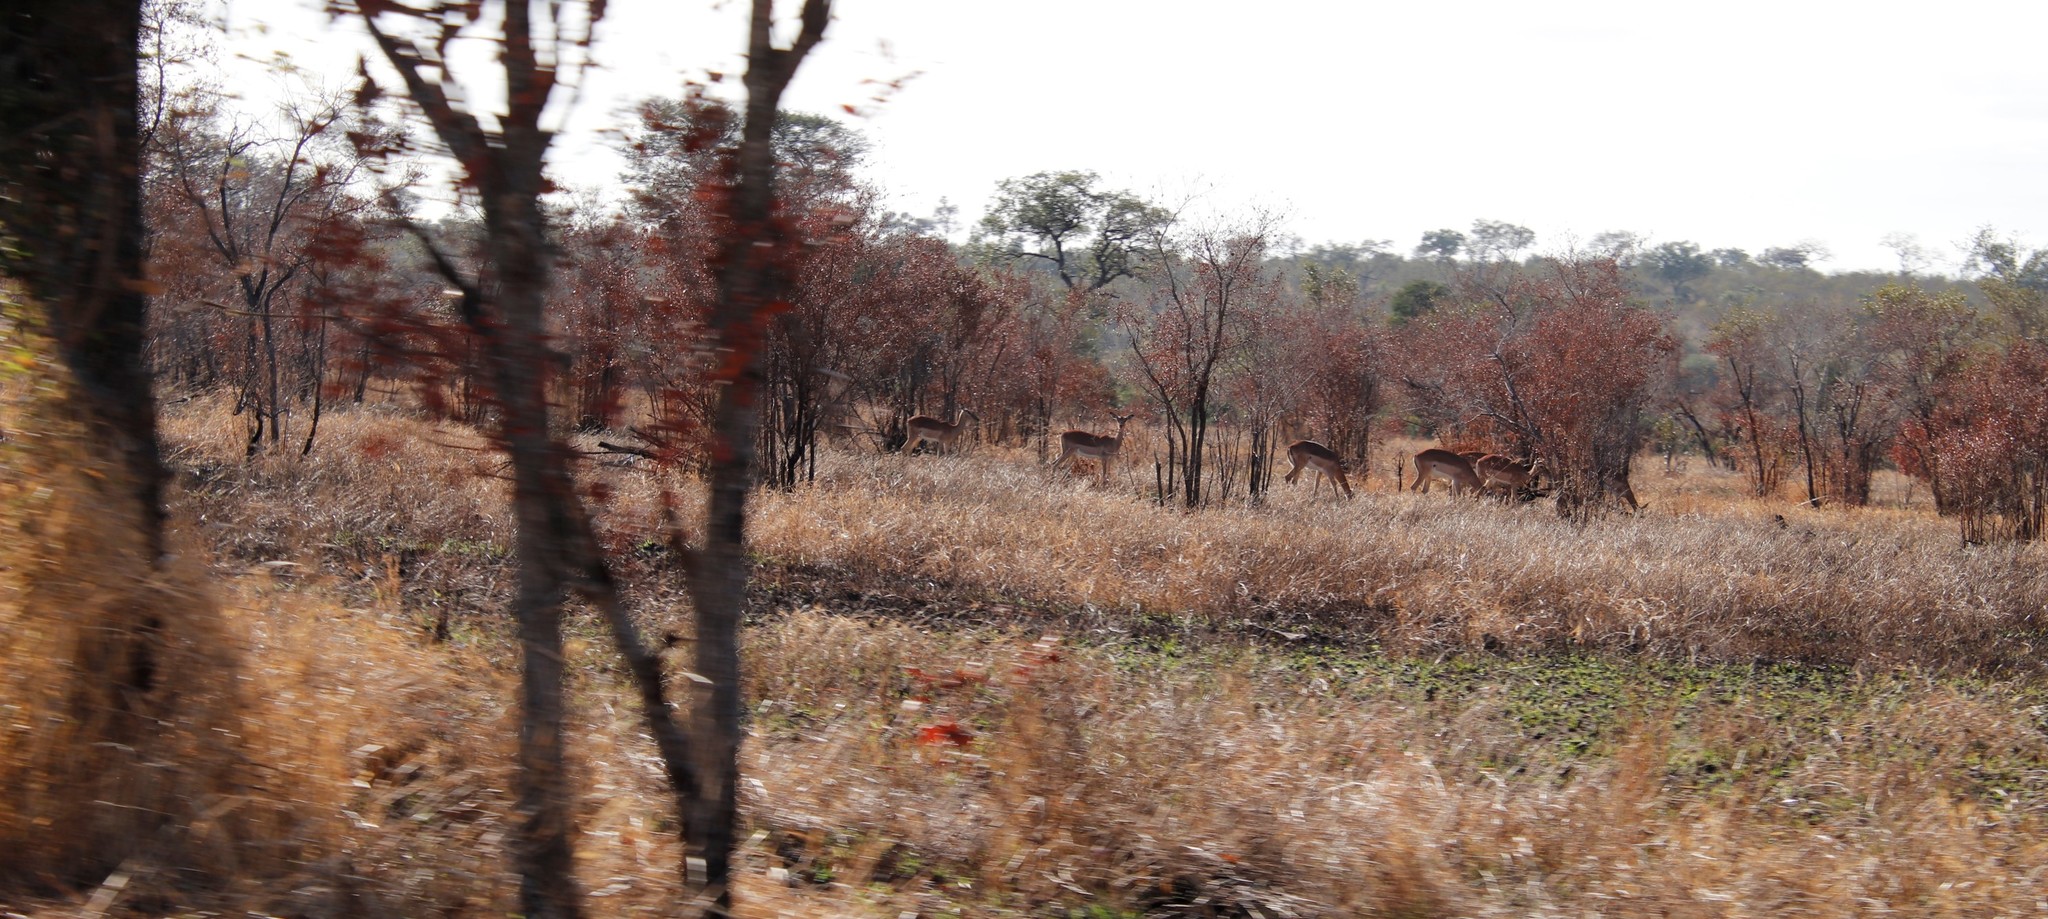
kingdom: Animalia
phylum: Chordata
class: Mammalia
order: Artiodactyla
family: Bovidae
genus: Aepyceros
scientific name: Aepyceros melampus
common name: Impala
